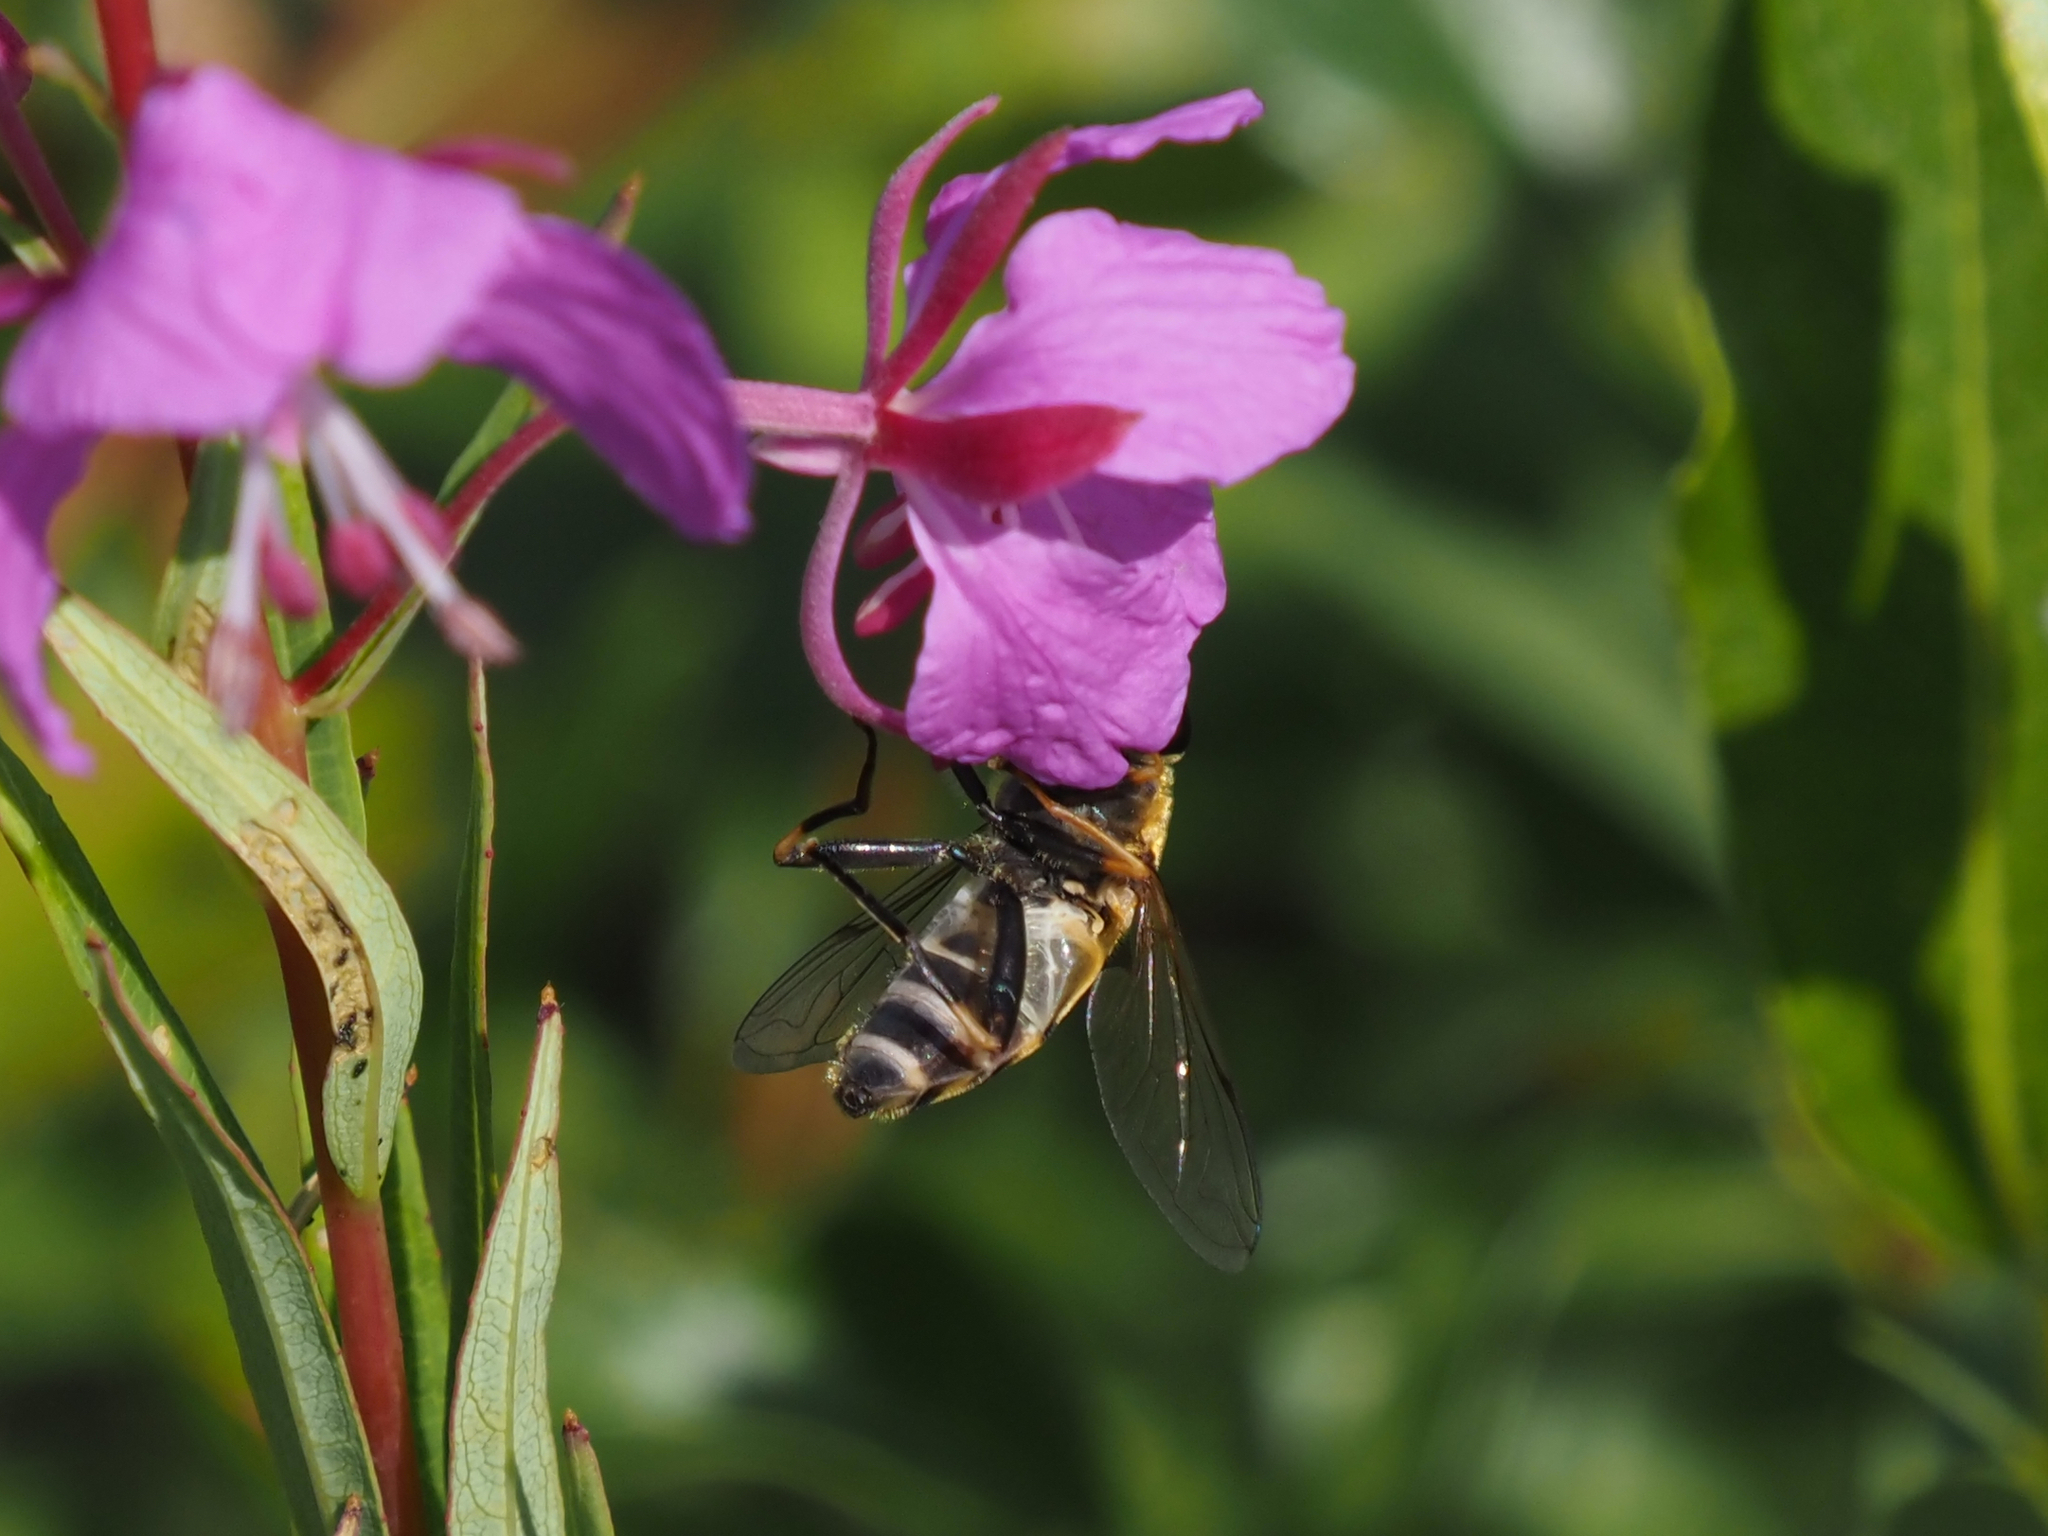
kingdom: Animalia
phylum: Arthropoda
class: Insecta
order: Diptera
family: Syrphidae
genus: Helophilus
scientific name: Helophilus neoaffinis
